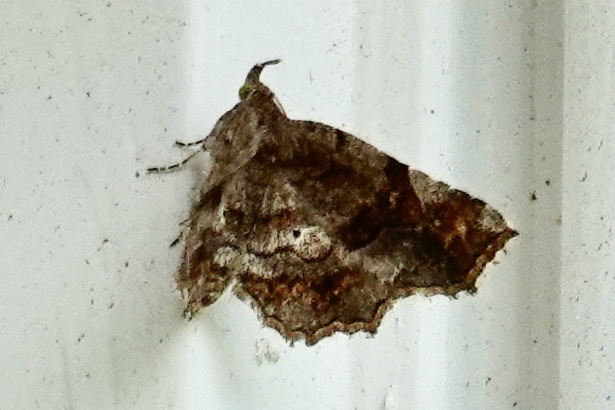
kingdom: Animalia
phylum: Arthropoda
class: Insecta
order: Lepidoptera
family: Erebidae
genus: Pangrapta
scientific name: Pangrapta decoralis
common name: Decorated owlet
